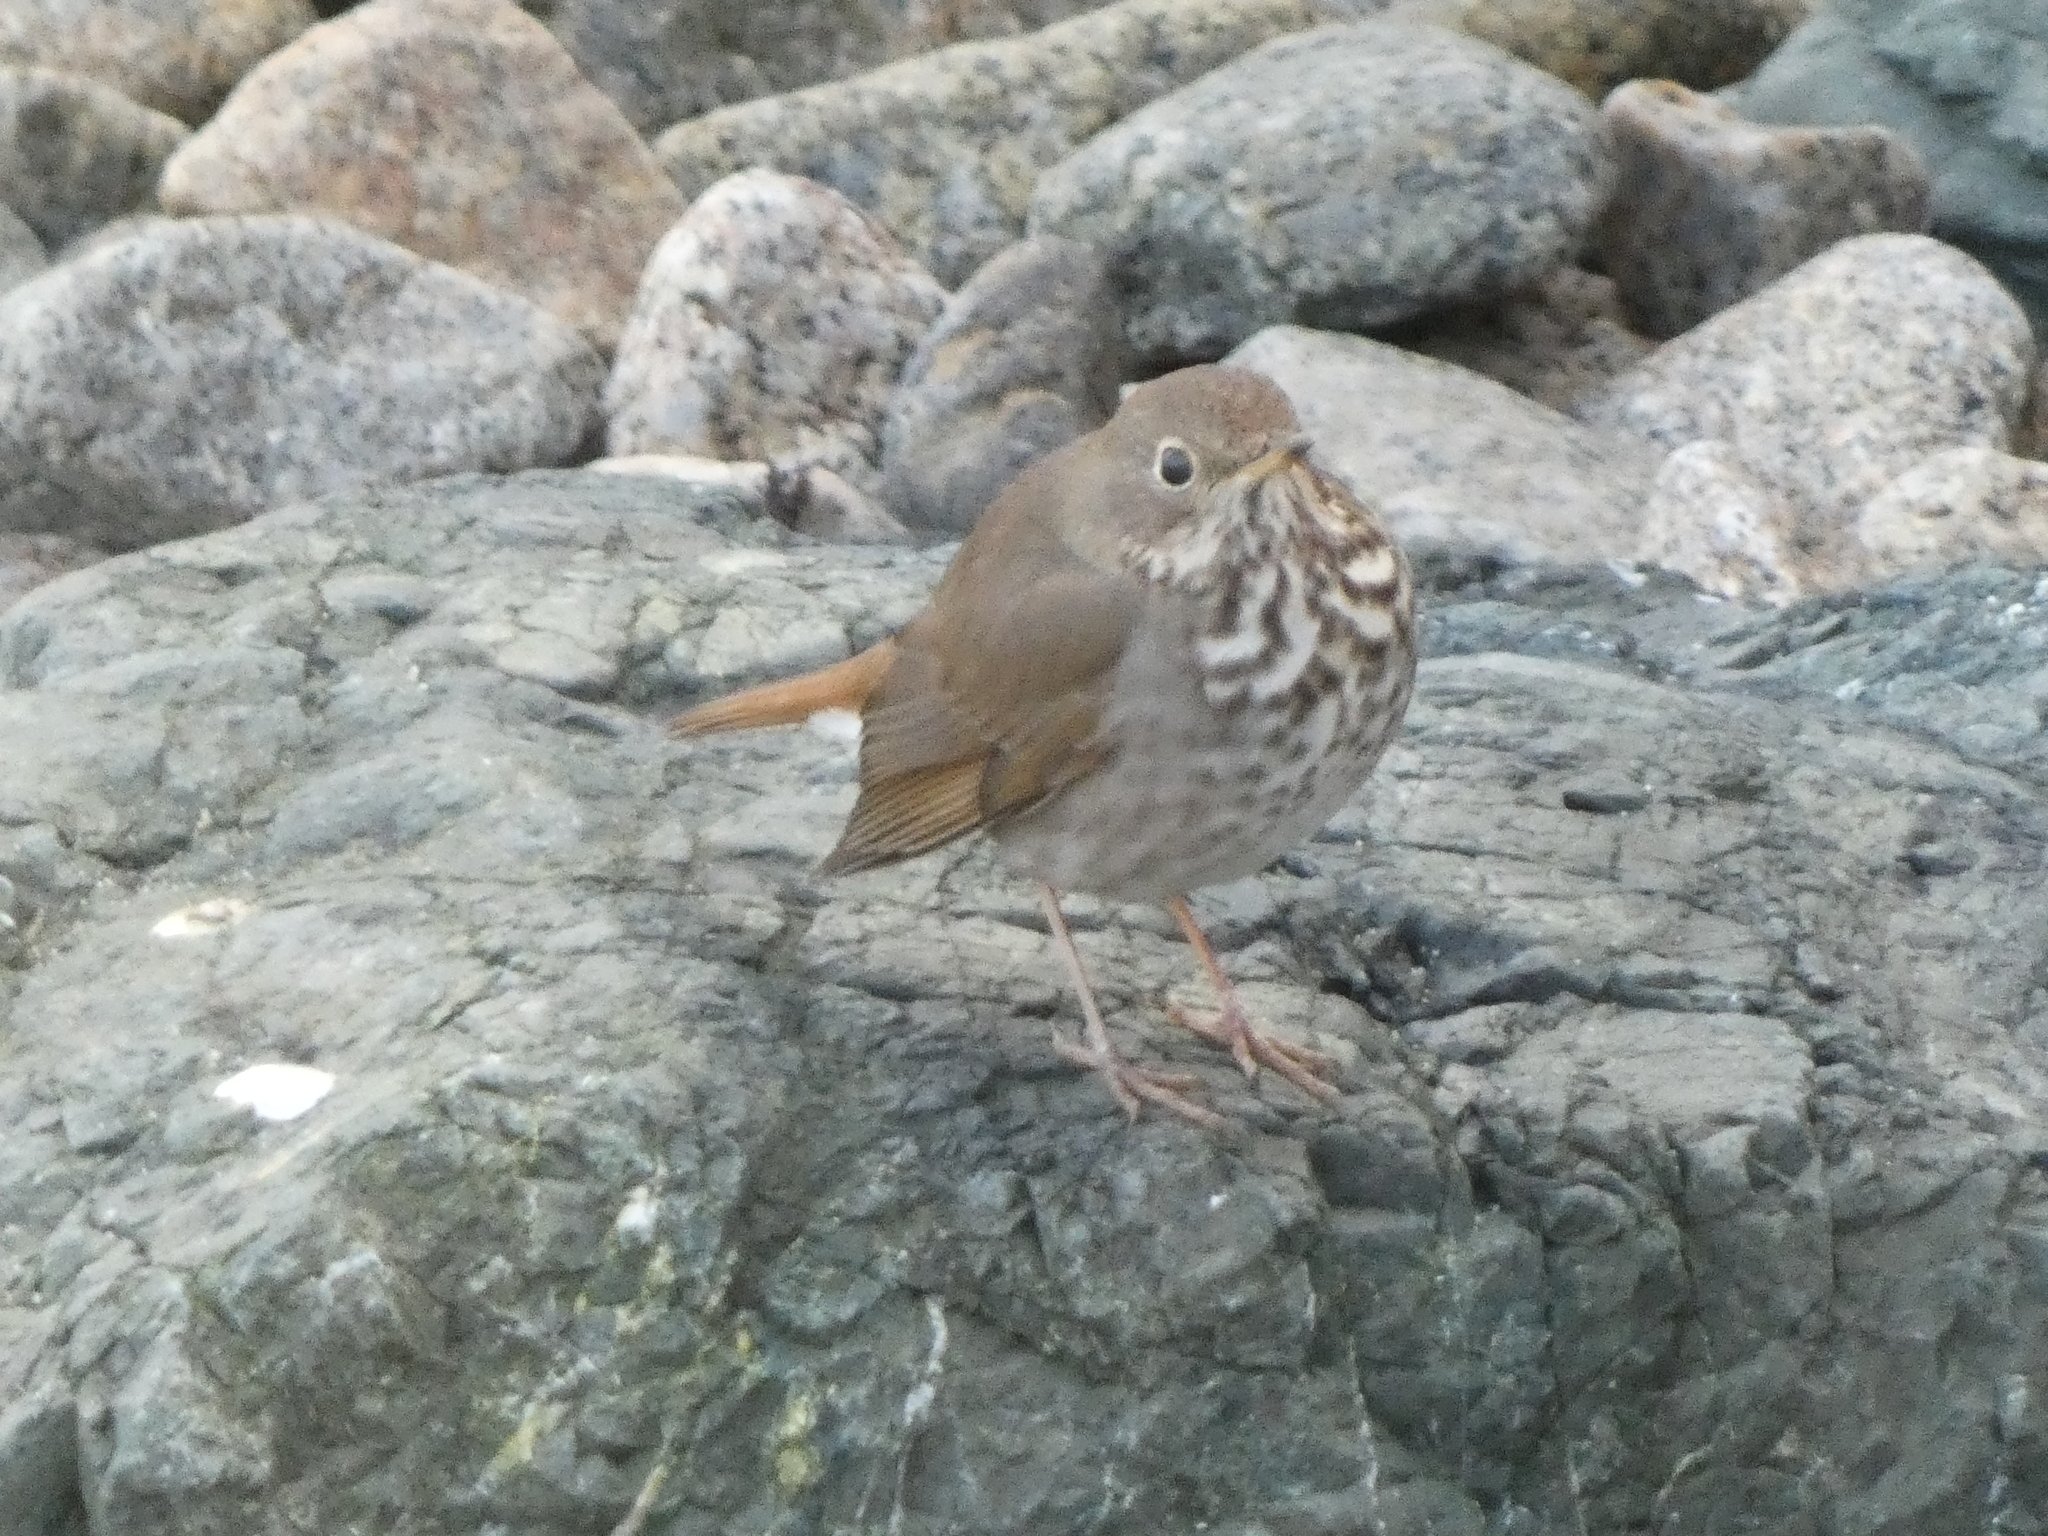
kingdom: Animalia
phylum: Chordata
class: Aves
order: Passeriformes
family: Turdidae
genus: Catharus
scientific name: Catharus guttatus
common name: Hermit thrush
